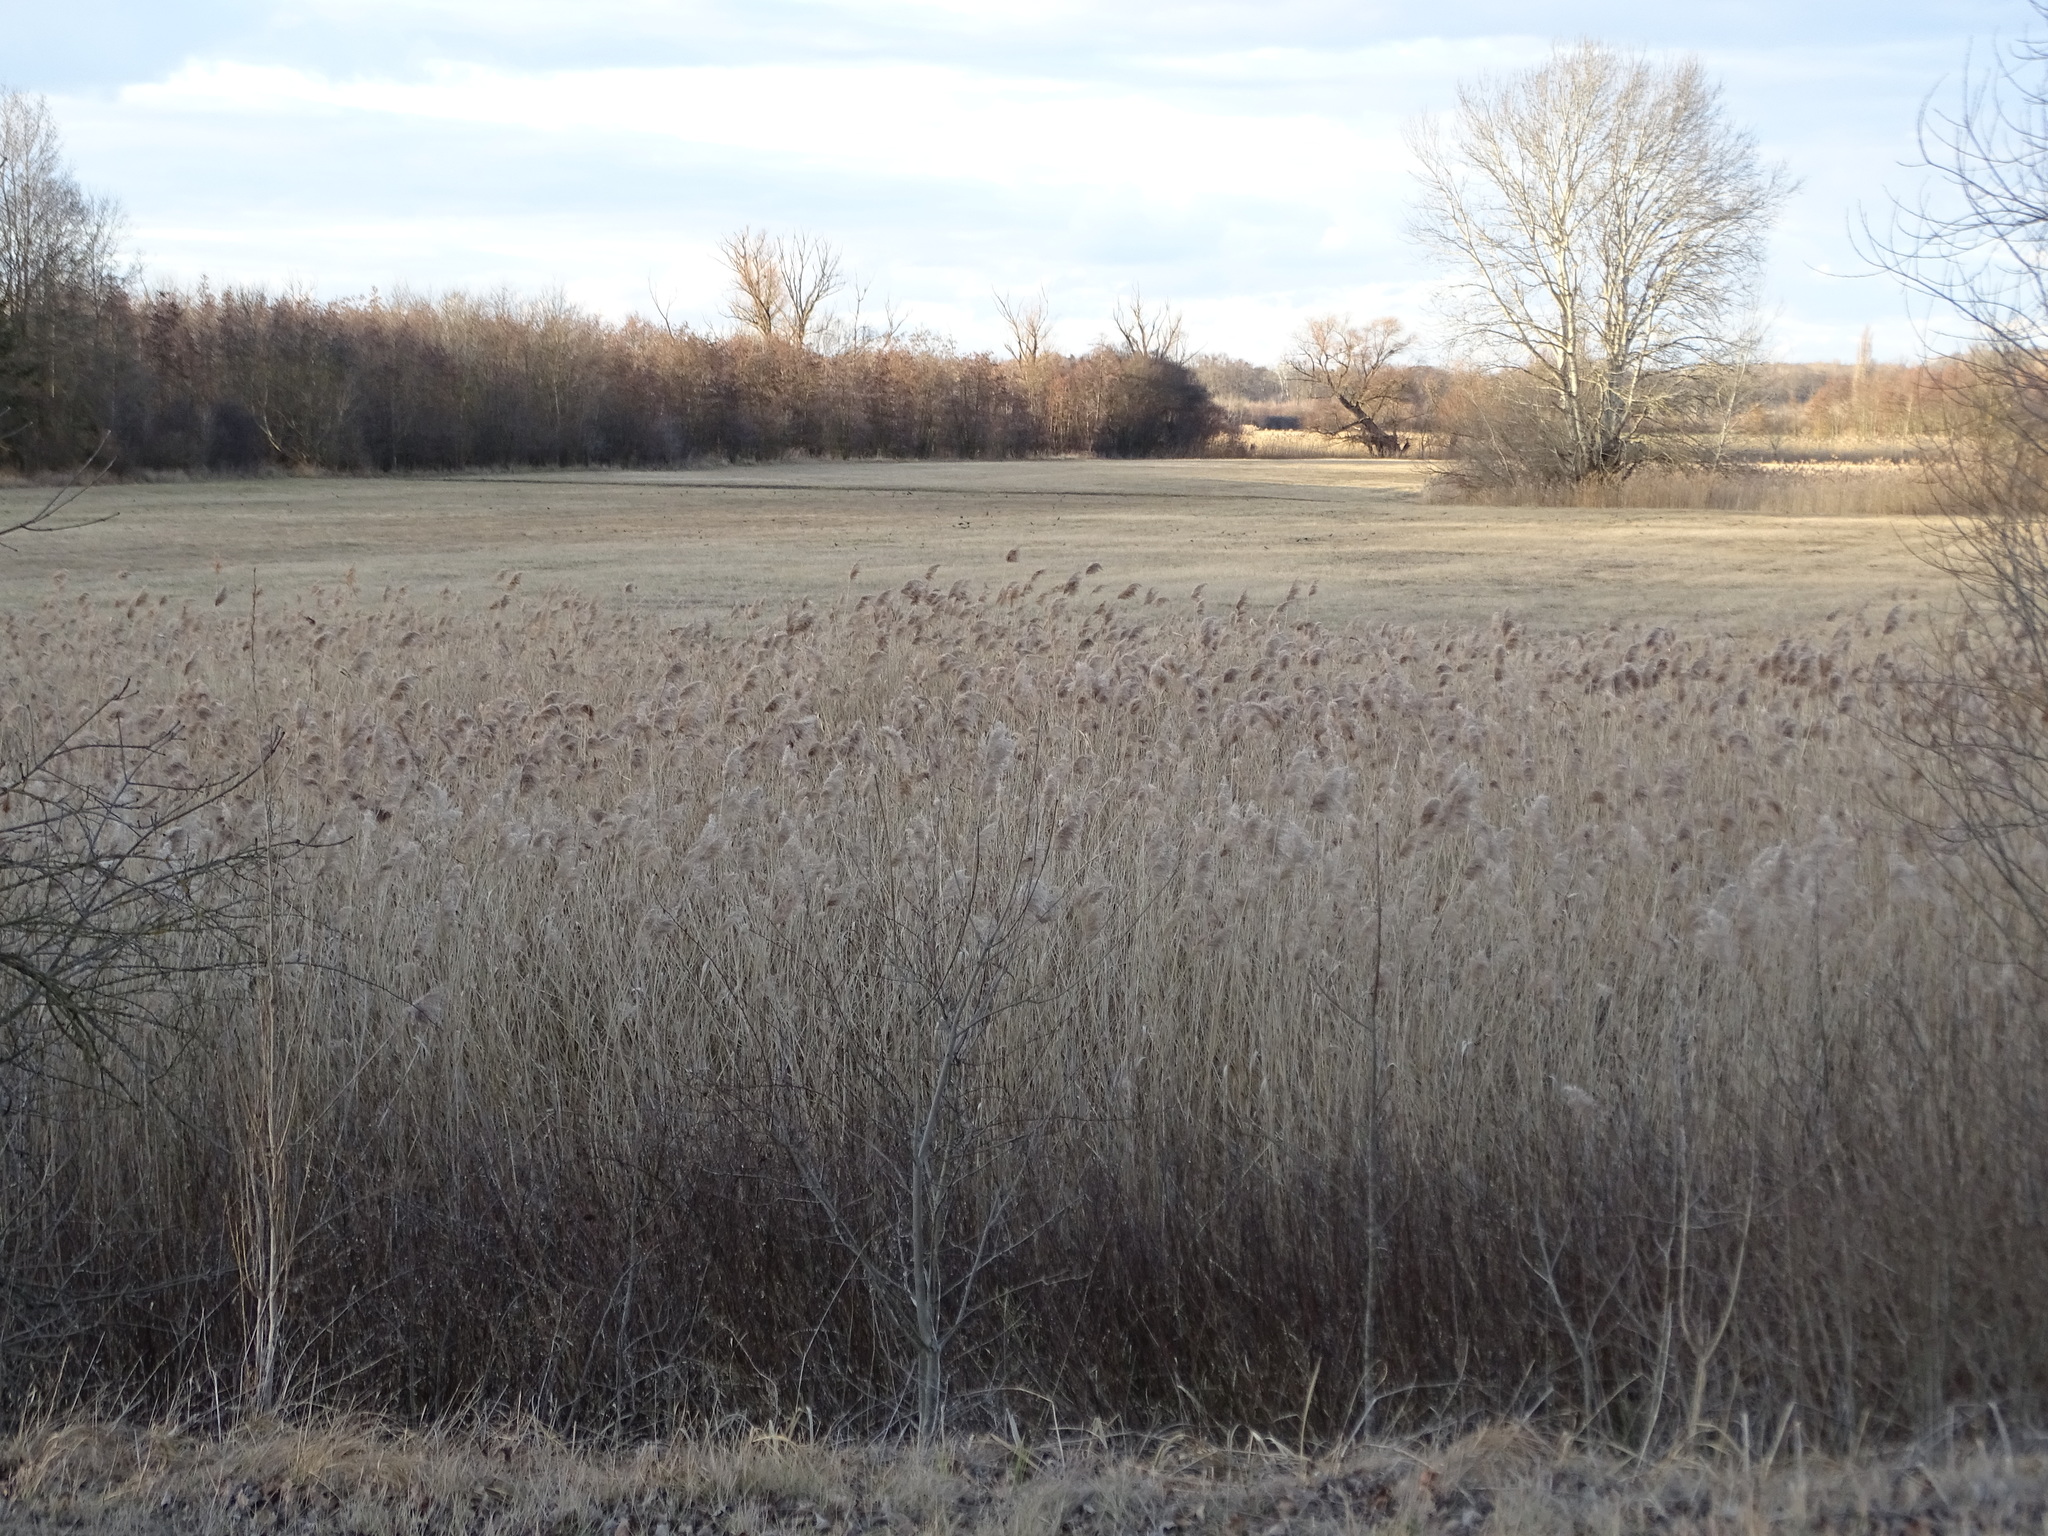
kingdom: Plantae
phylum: Tracheophyta
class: Liliopsida
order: Poales
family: Poaceae
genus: Phragmites
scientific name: Phragmites australis
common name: Common reed
